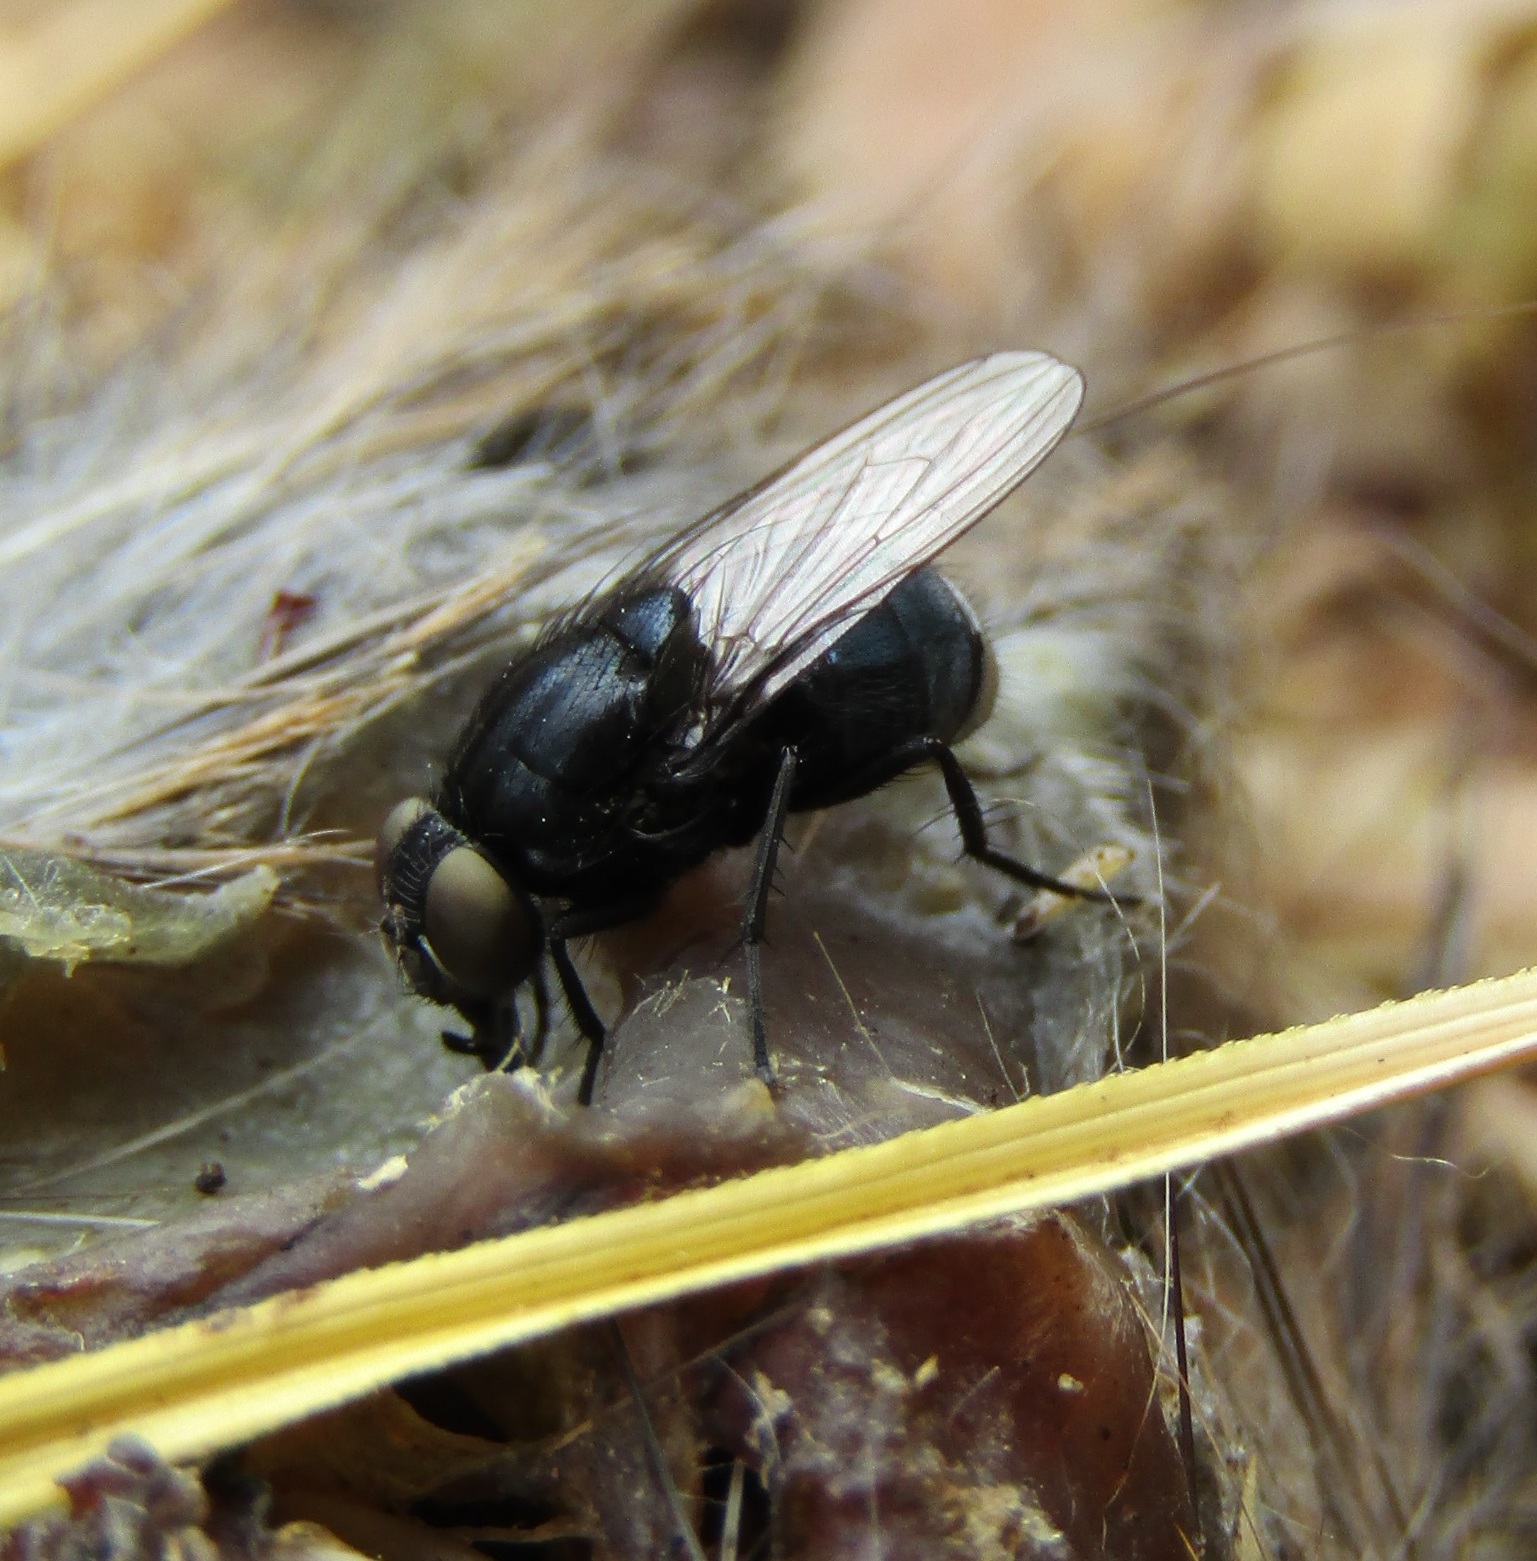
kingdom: Animalia
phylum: Arthropoda
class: Insecta
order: Diptera
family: Muscidae
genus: Australophyra
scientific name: Australophyra rostrata
